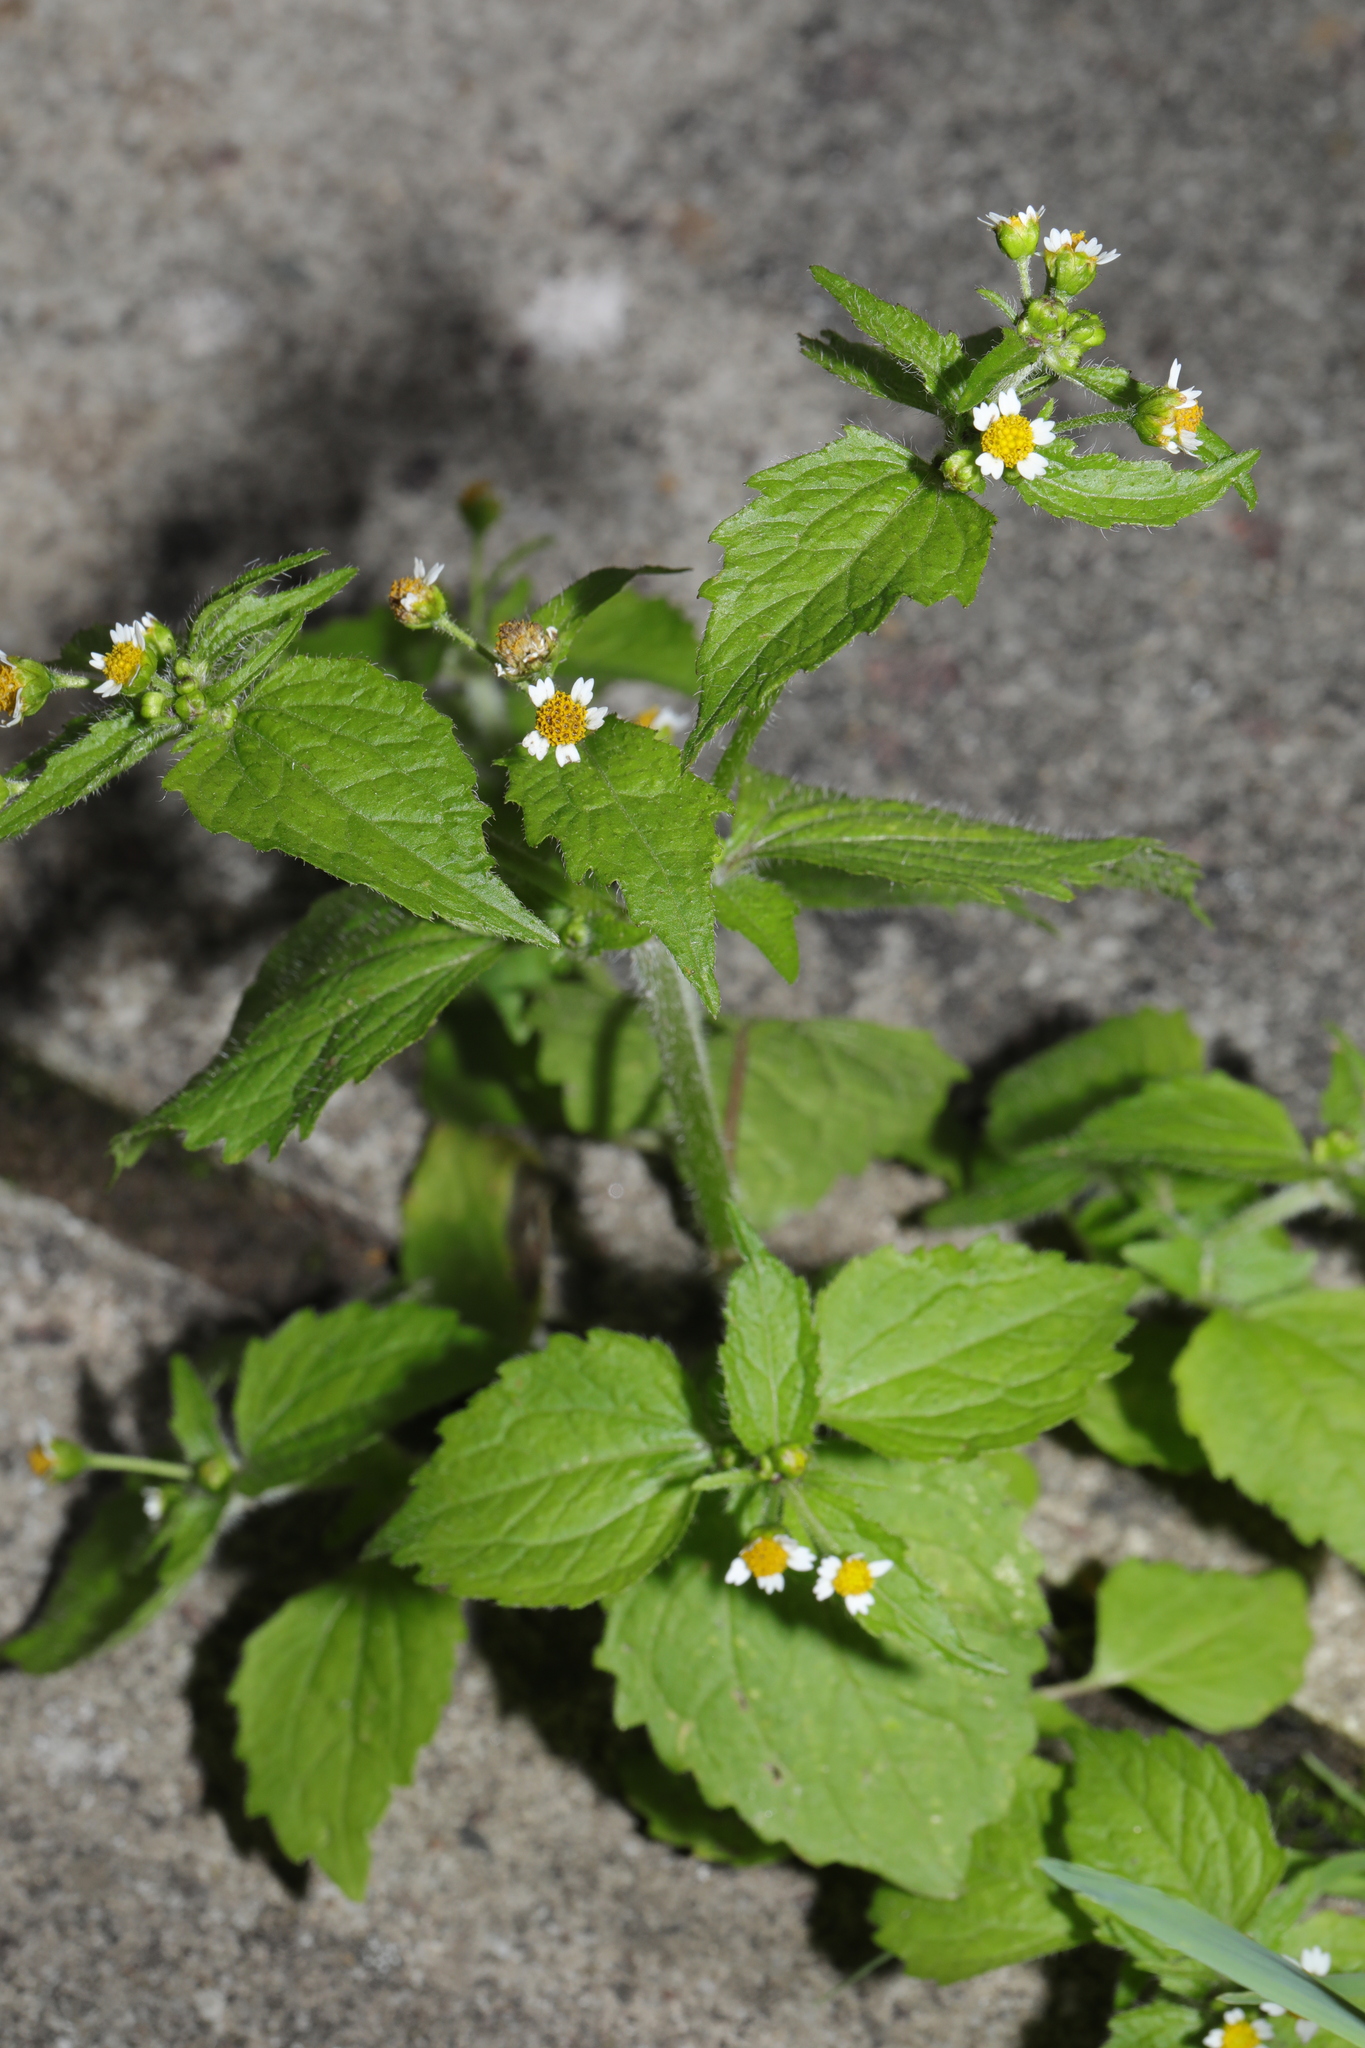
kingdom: Plantae
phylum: Tracheophyta
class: Magnoliopsida
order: Asterales
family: Asteraceae
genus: Galinsoga
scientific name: Galinsoga quadriradiata
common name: Shaggy soldier
